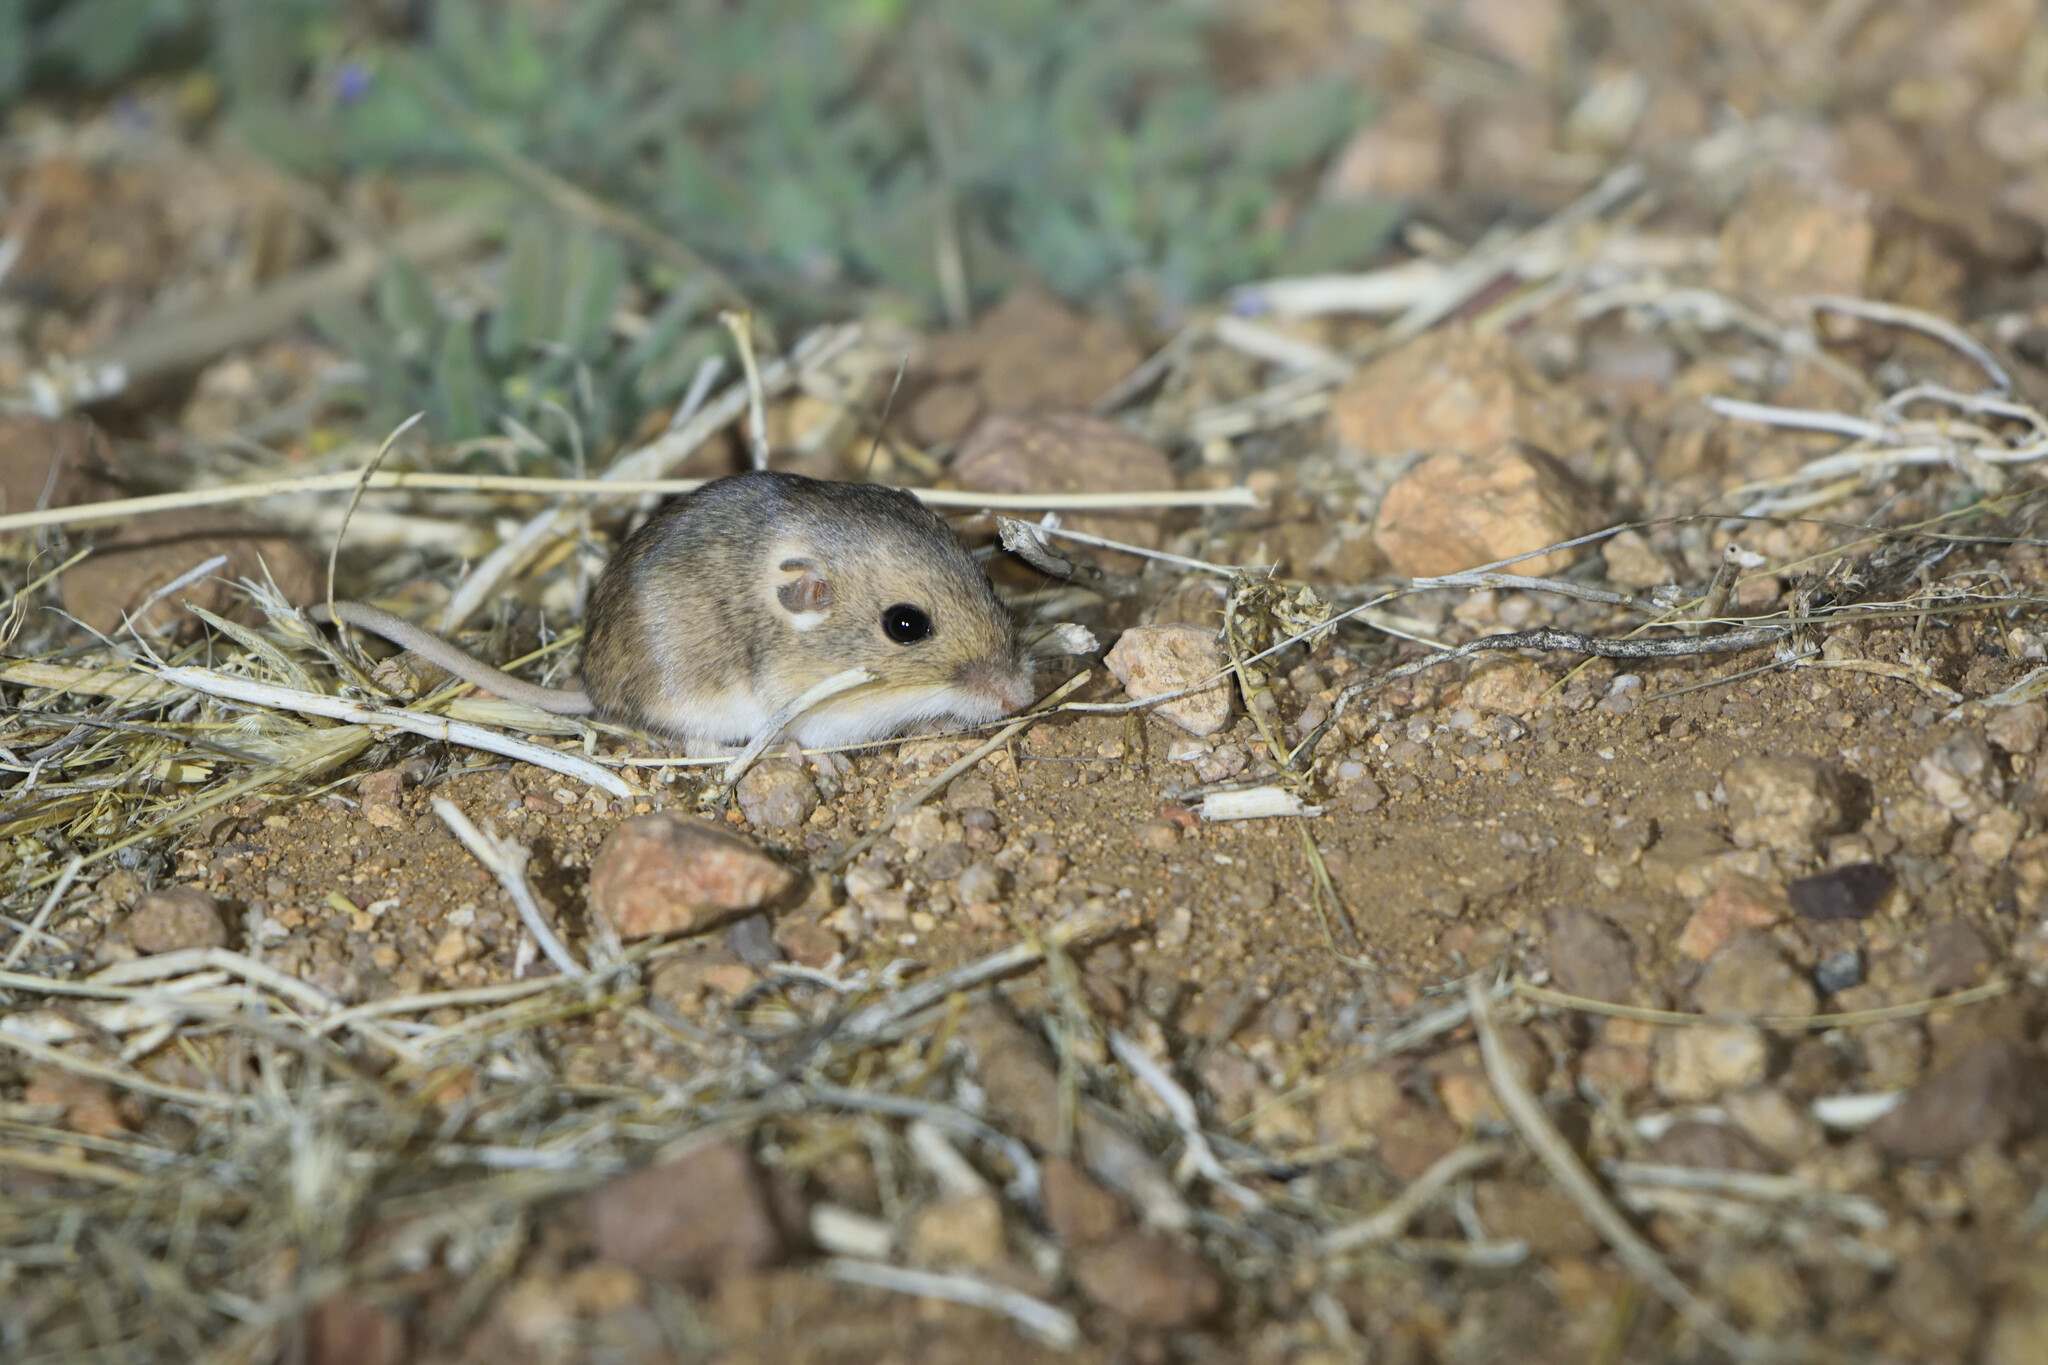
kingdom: Animalia
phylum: Chordata
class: Mammalia
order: Rodentia
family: Heteromyidae
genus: Perognathus
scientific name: Perognathus flavus
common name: Silky pocket mouse
